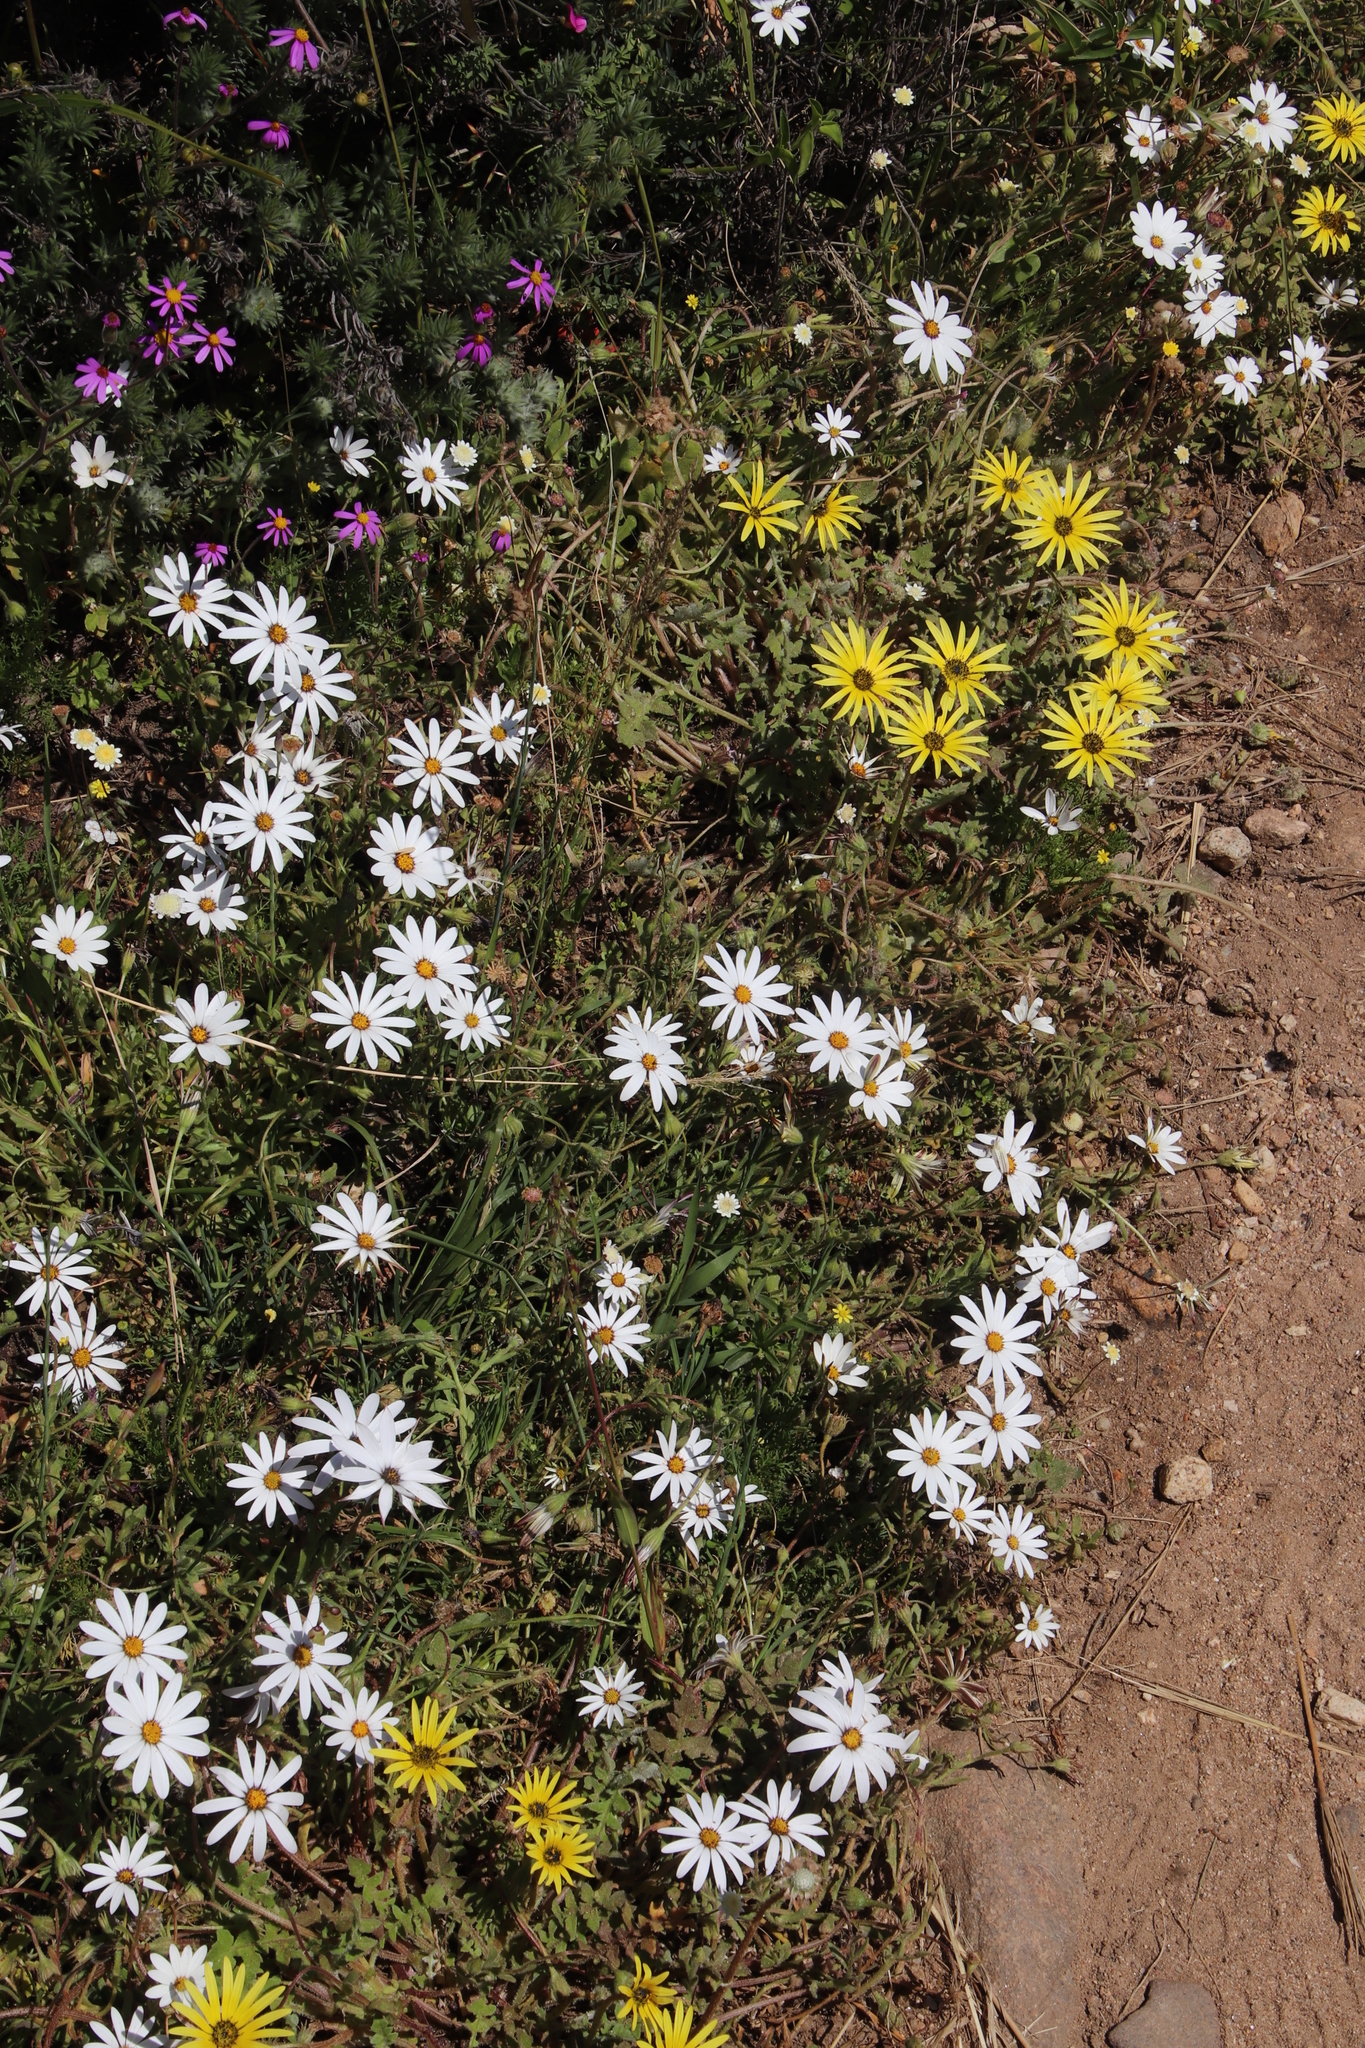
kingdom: Plantae
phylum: Tracheophyta
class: Magnoliopsida
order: Asterales
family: Asteraceae
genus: Arctotheca
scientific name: Arctotheca calendula
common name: Capeweed
